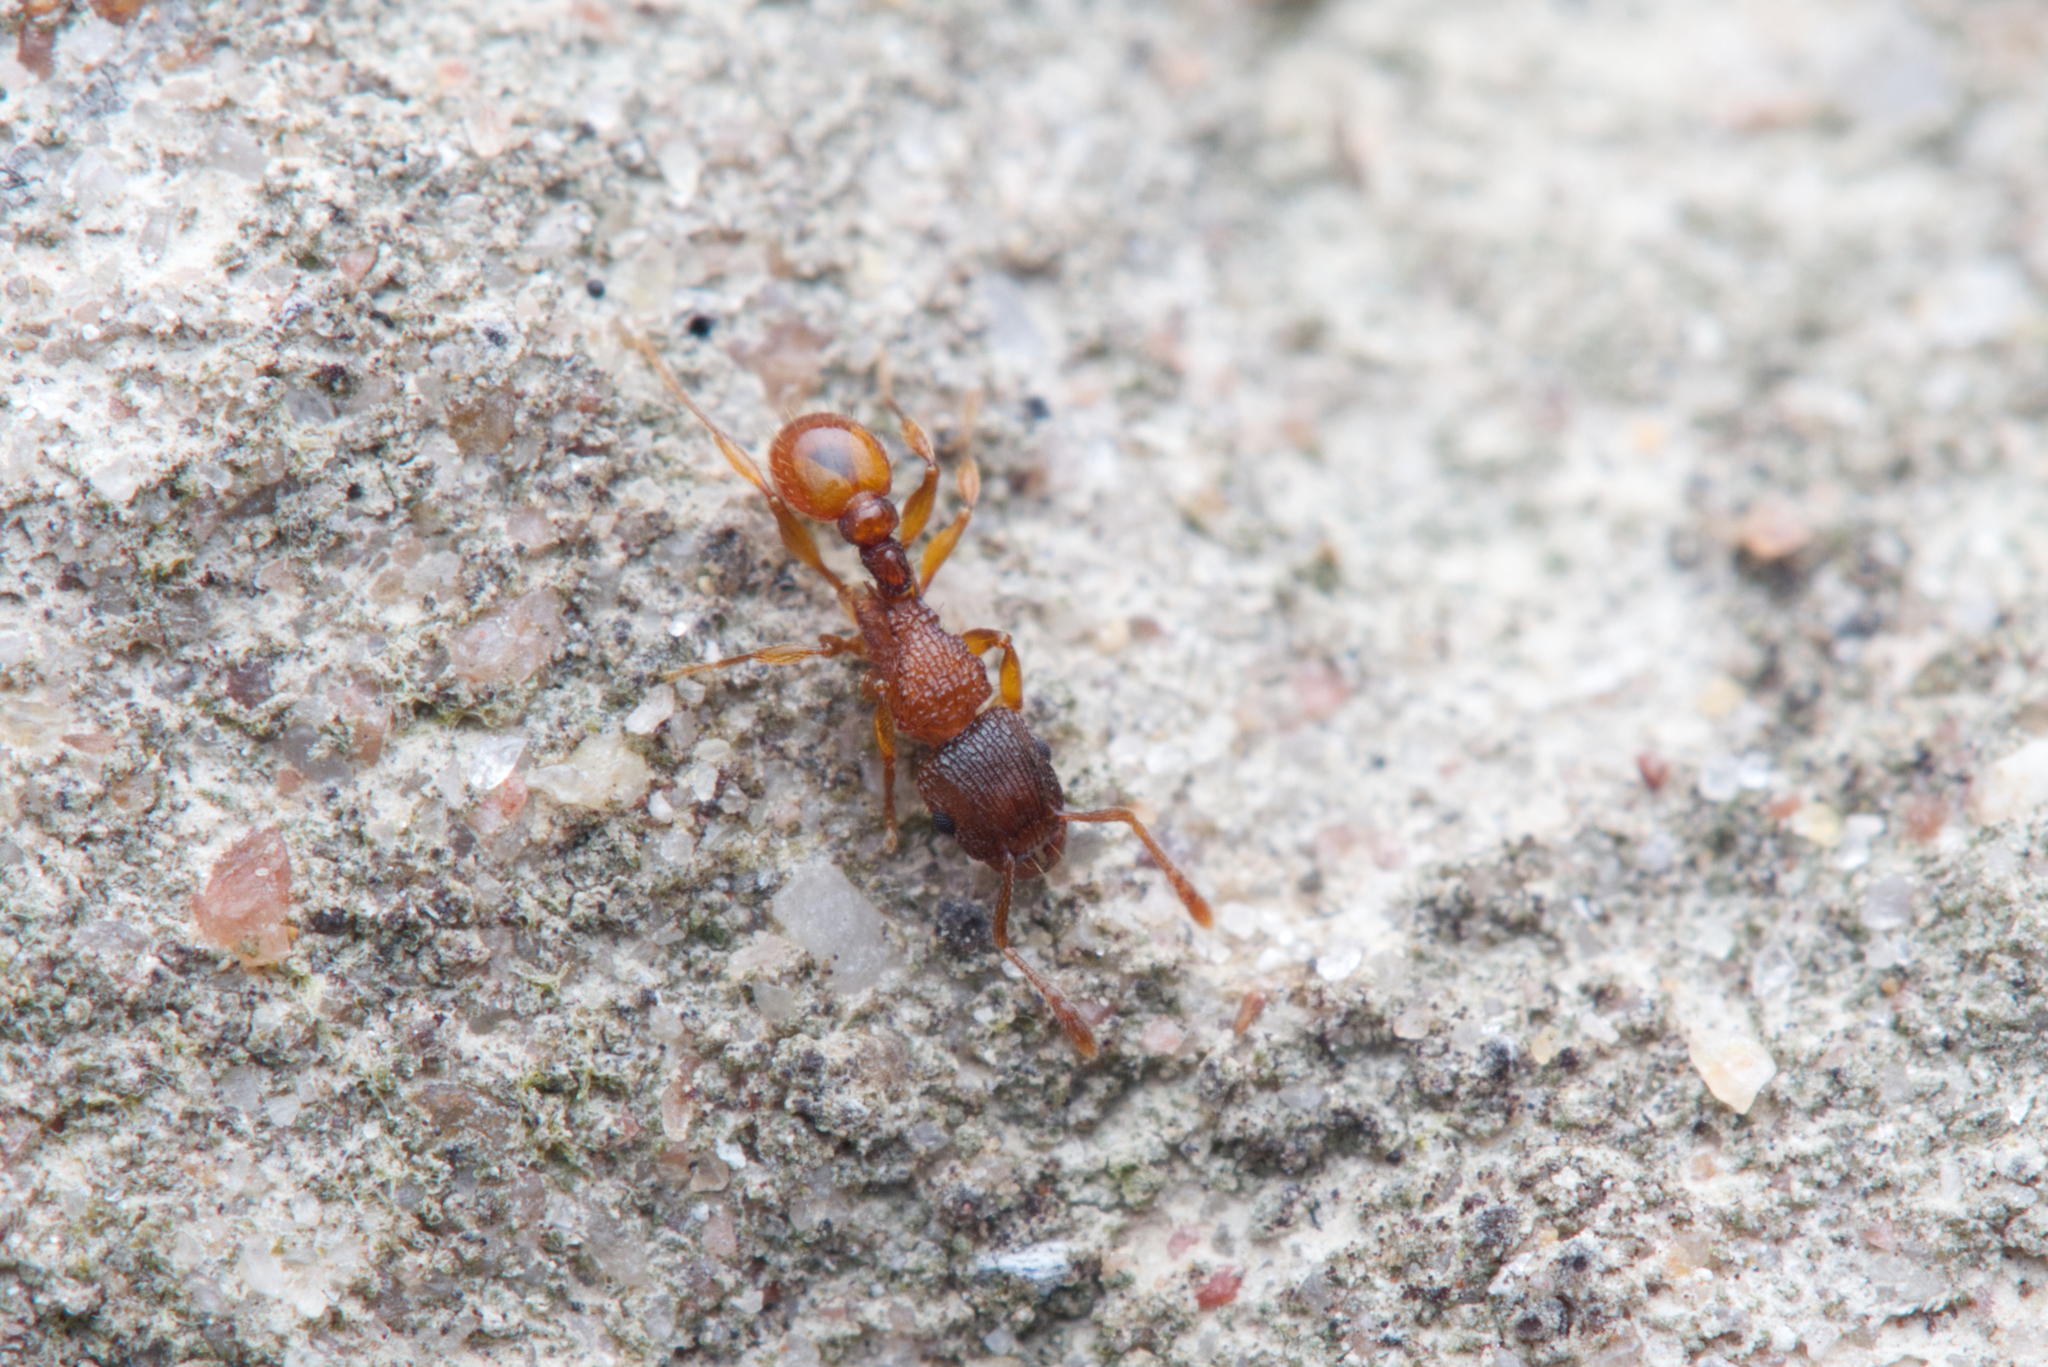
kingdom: Animalia
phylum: Arthropoda
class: Insecta
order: Hymenoptera
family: Formicidae
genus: Tetramorium
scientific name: Tetramorium fuscipes
